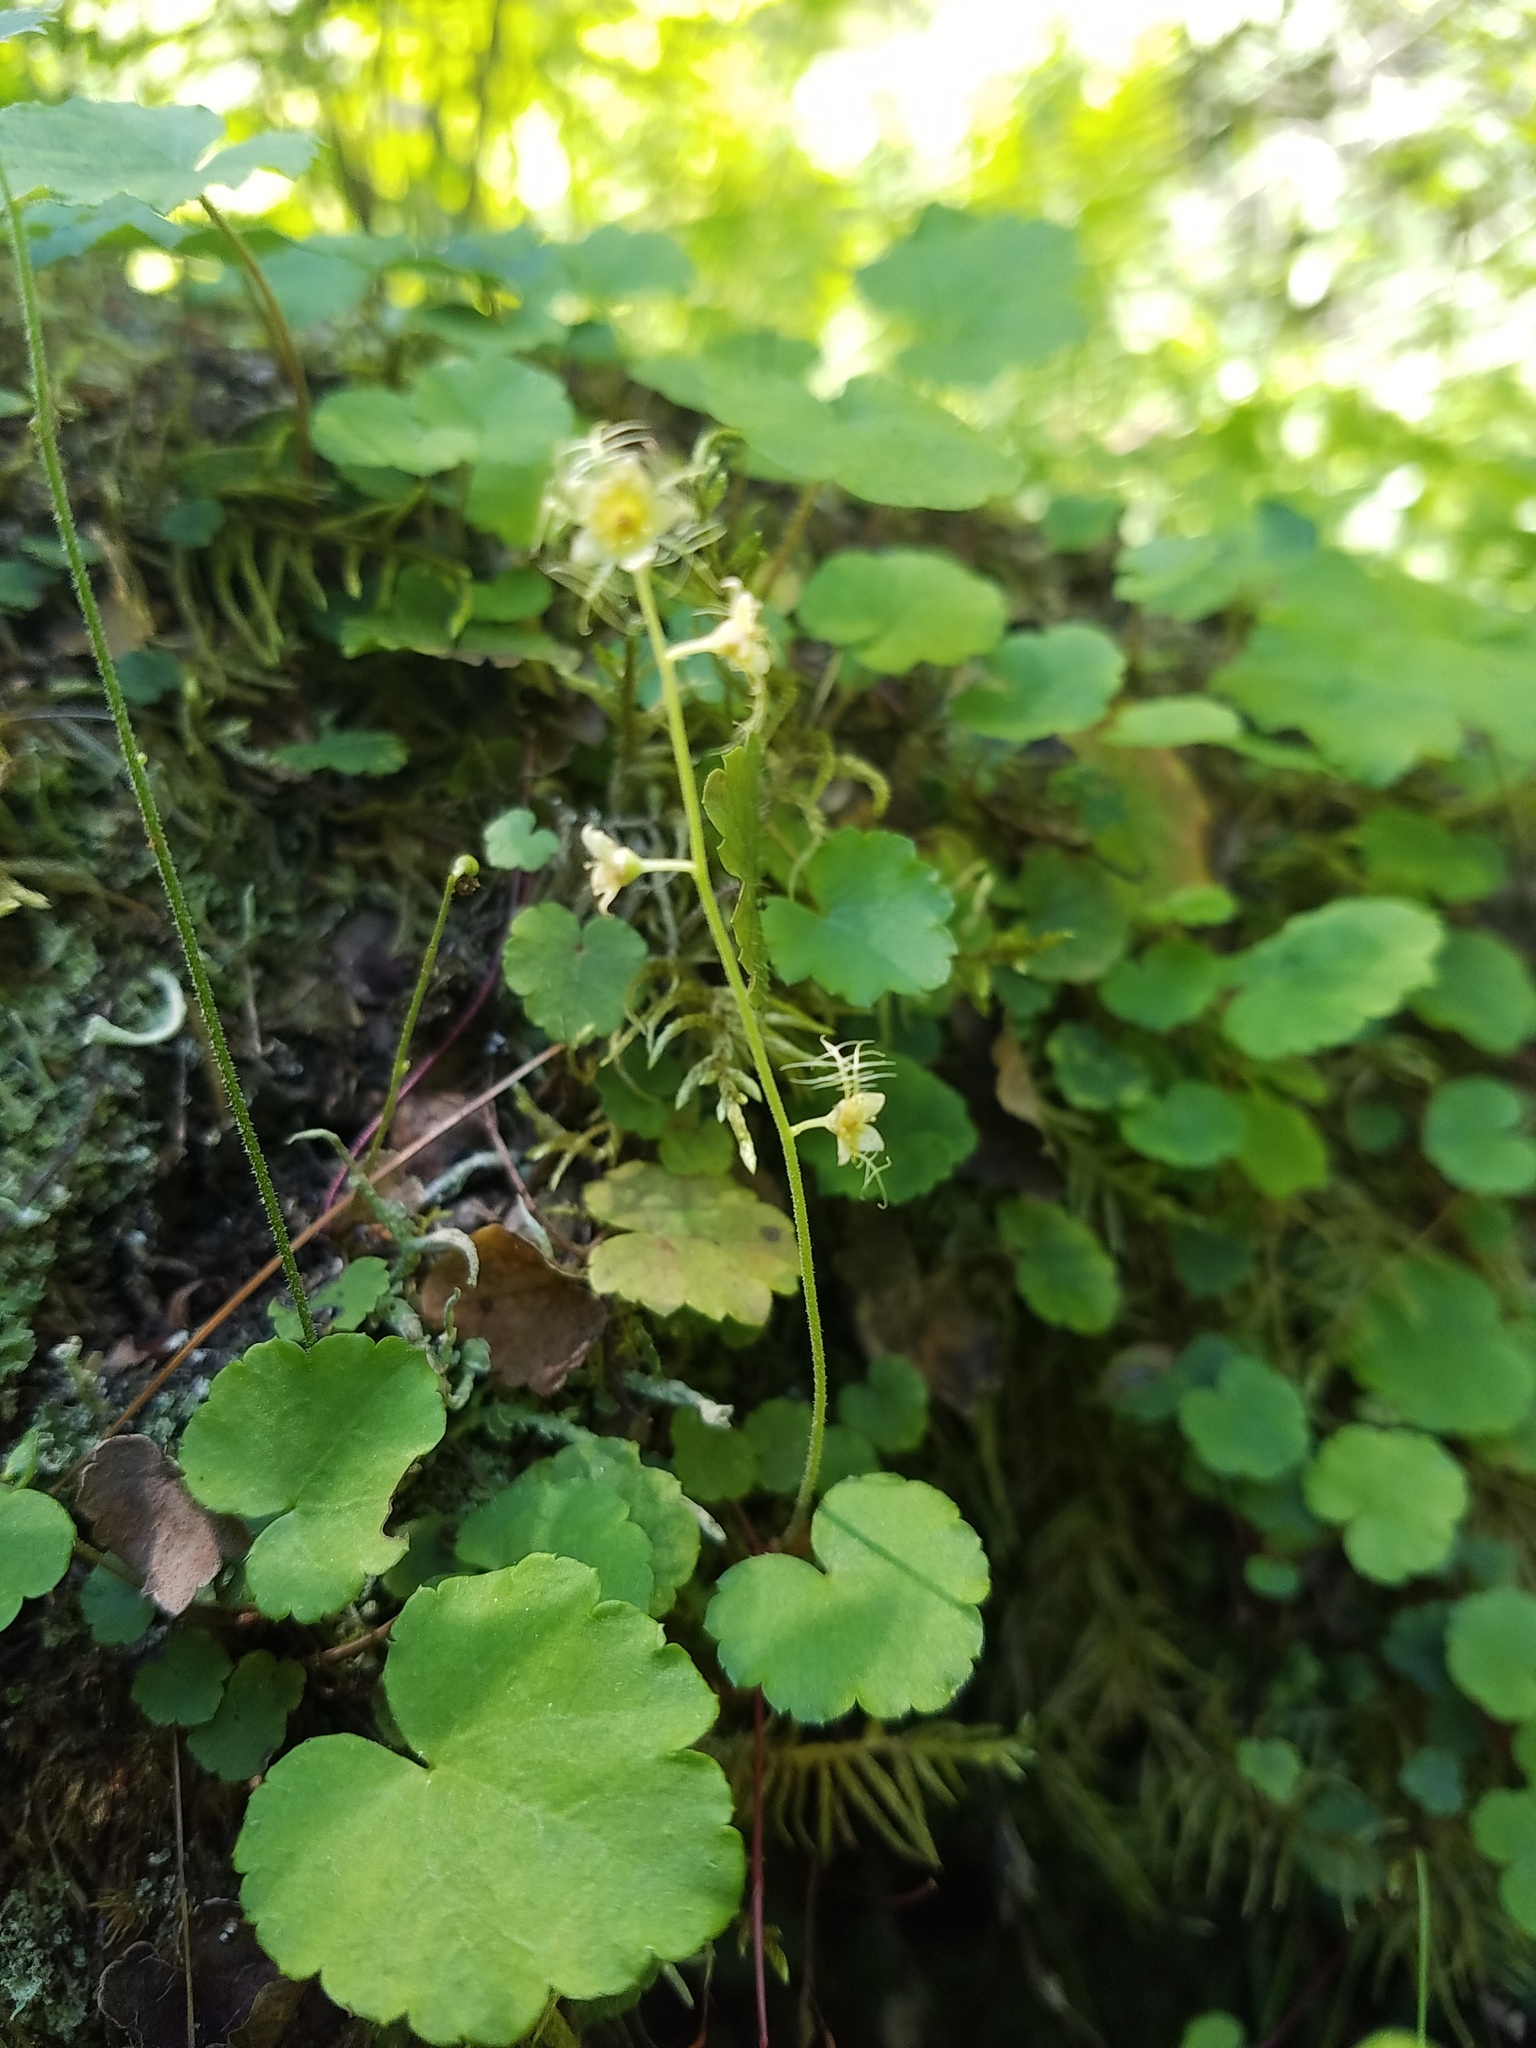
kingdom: Plantae
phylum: Tracheophyta
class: Magnoliopsida
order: Saxifragales
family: Saxifragaceae
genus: Mitella
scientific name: Mitella nuda
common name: Bare-stemmed bishop's-cap
